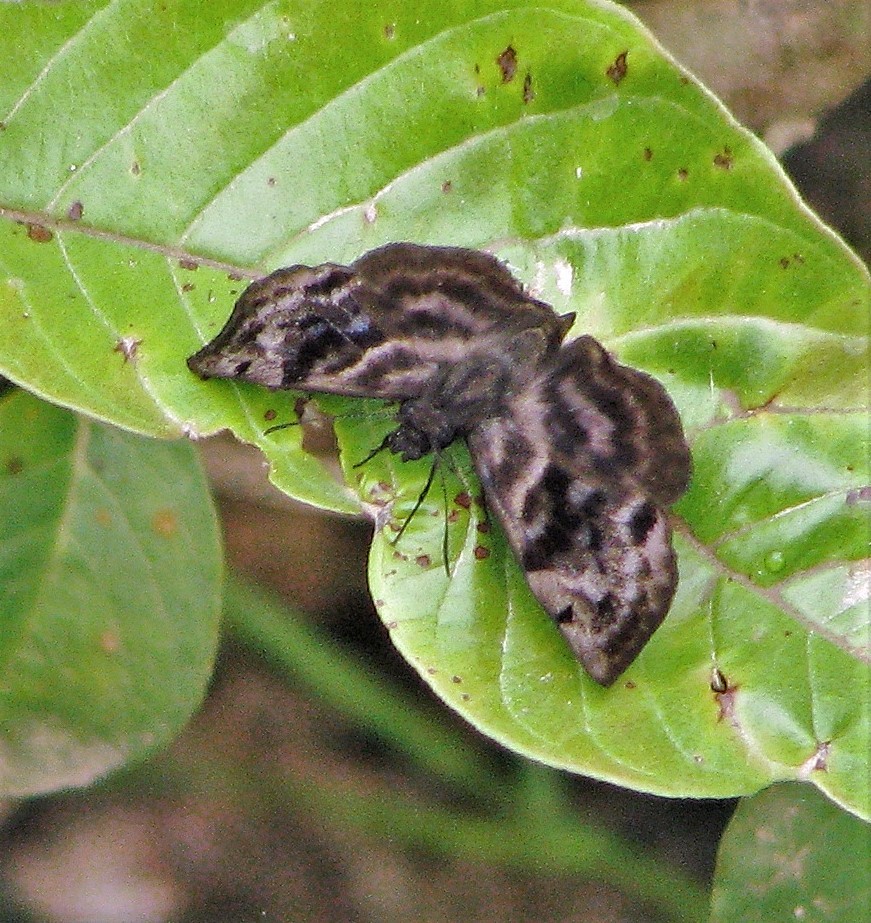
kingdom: Animalia
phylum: Arthropoda
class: Insecta
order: Lepidoptera
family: Hesperiidae
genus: Ebrietas
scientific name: Ebrietas anacreon
